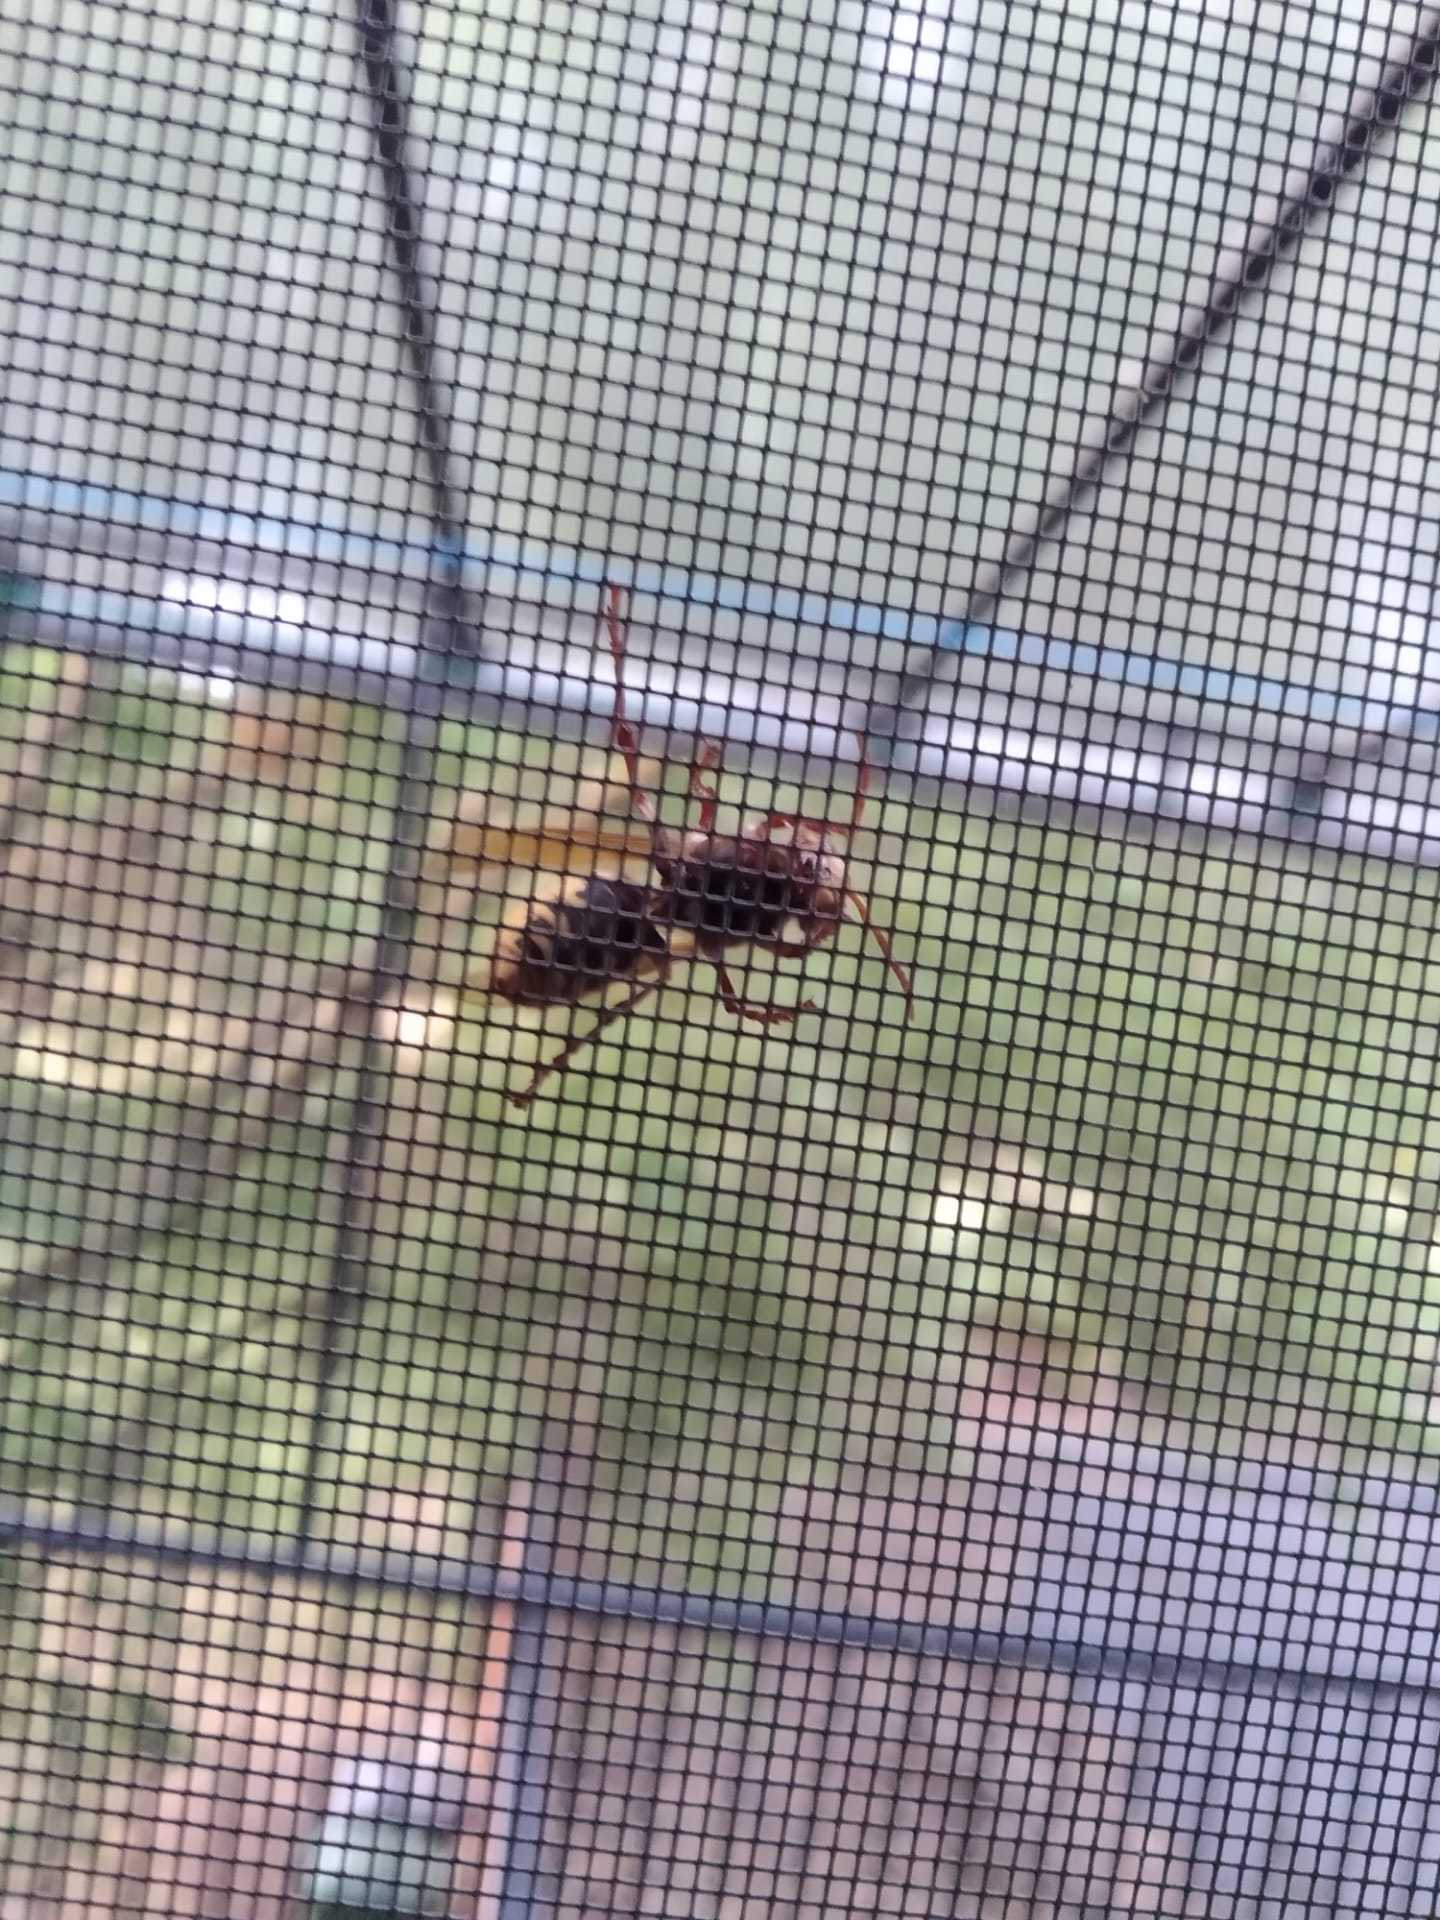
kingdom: Animalia
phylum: Arthropoda
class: Insecta
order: Hymenoptera
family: Vespidae
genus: Vespa
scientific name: Vespa crabro
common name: Hornet
